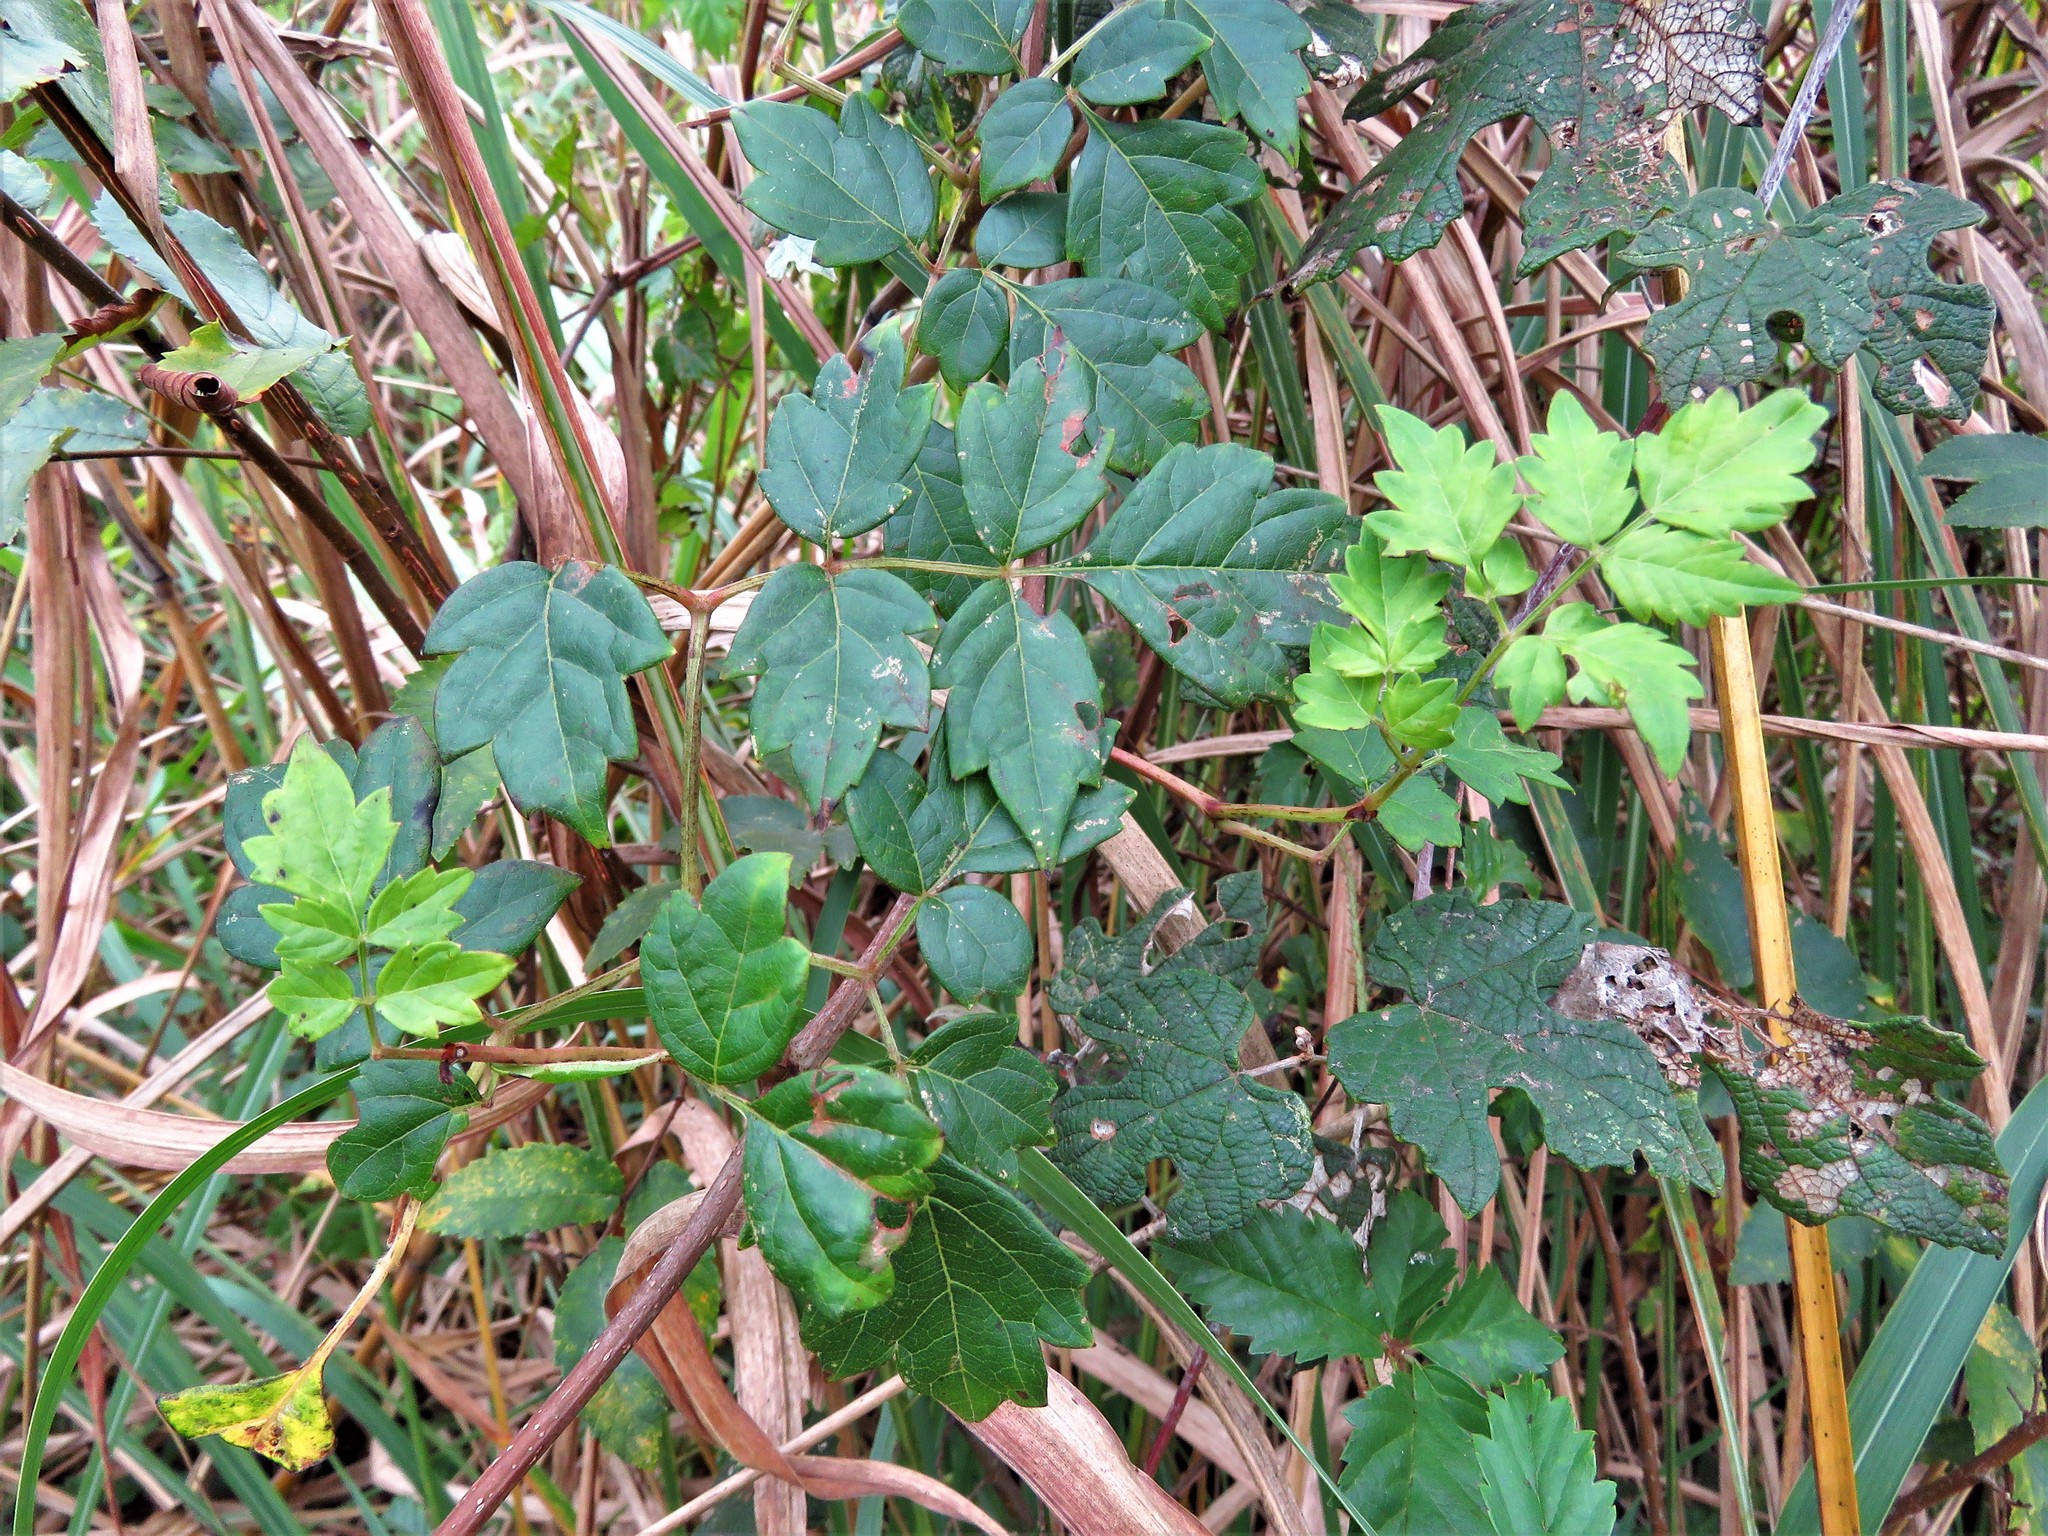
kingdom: Plantae
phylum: Tracheophyta
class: Magnoliopsida
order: Vitales
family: Vitaceae
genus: Nekemias
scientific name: Nekemias arborea
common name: Peppervine
